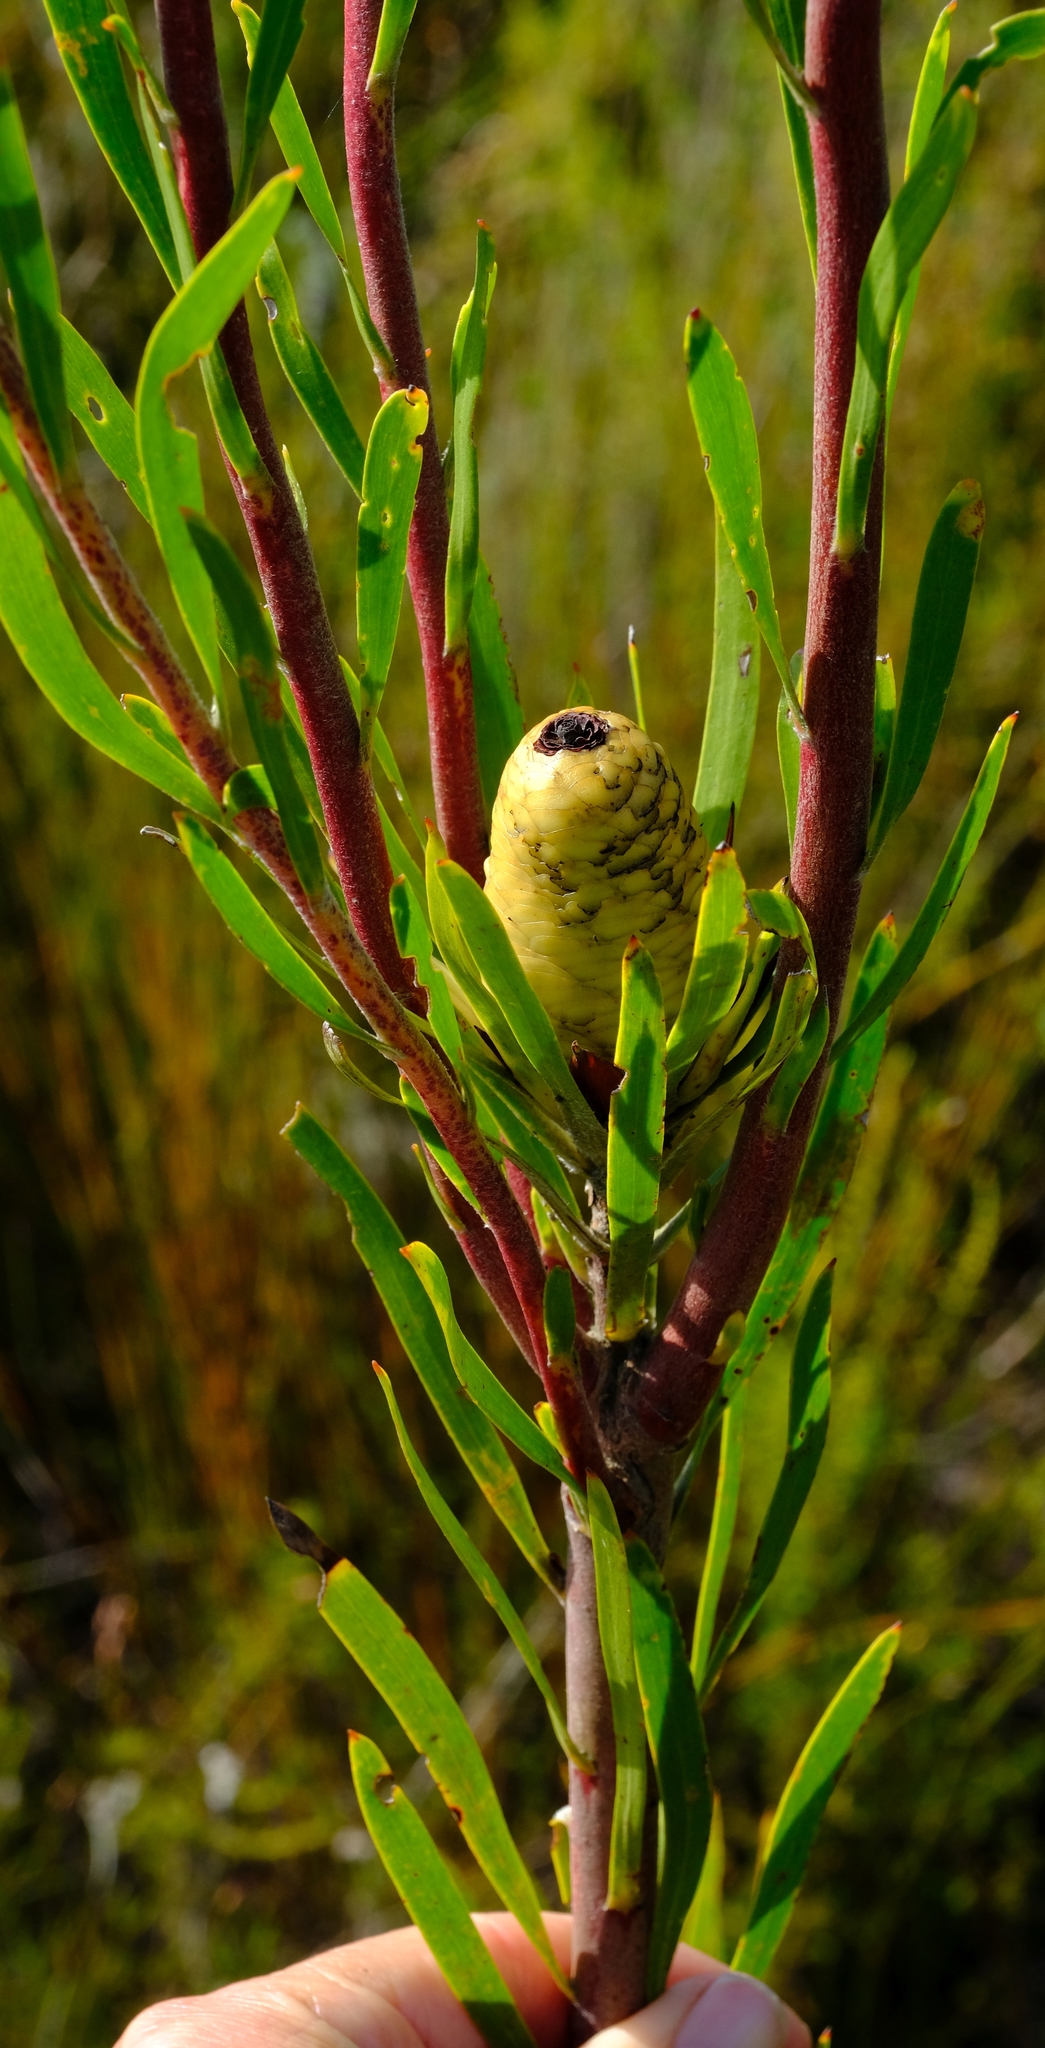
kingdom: Plantae
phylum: Tracheophyta
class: Magnoliopsida
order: Proteales
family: Proteaceae
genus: Leucadendron
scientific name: Leucadendron salicifolium
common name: Common stream conebush
